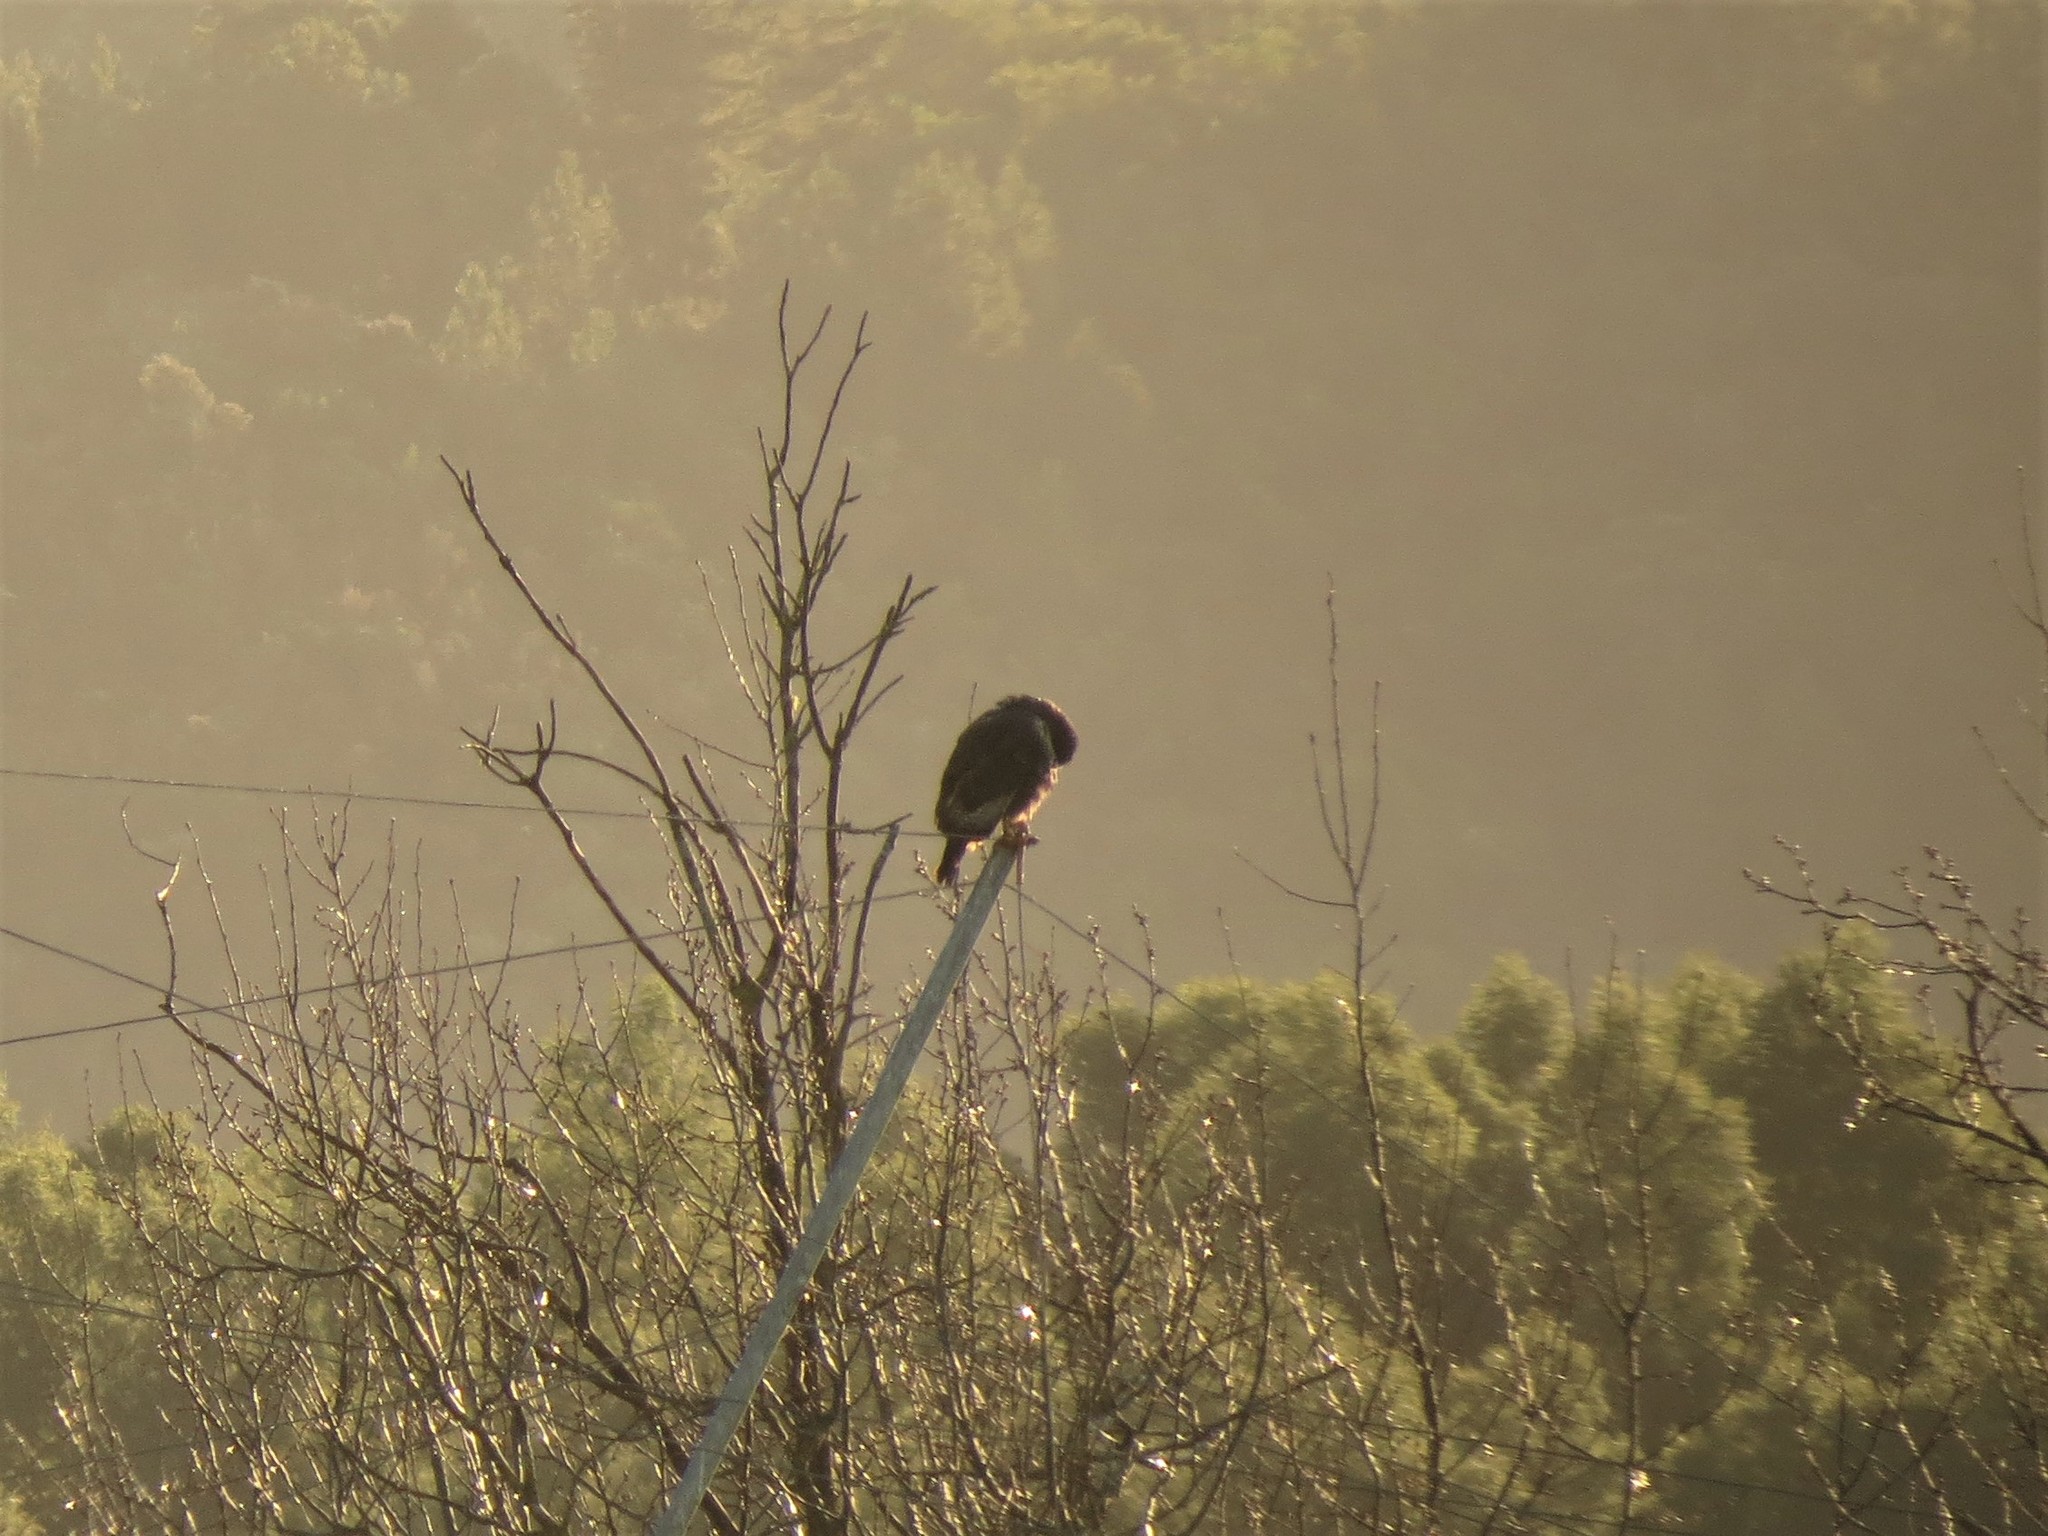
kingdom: Animalia
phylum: Chordata
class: Aves
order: Accipitriformes
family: Accipitridae
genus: Buteo
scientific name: Buteo rufofuscus
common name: Jackal buzzard
